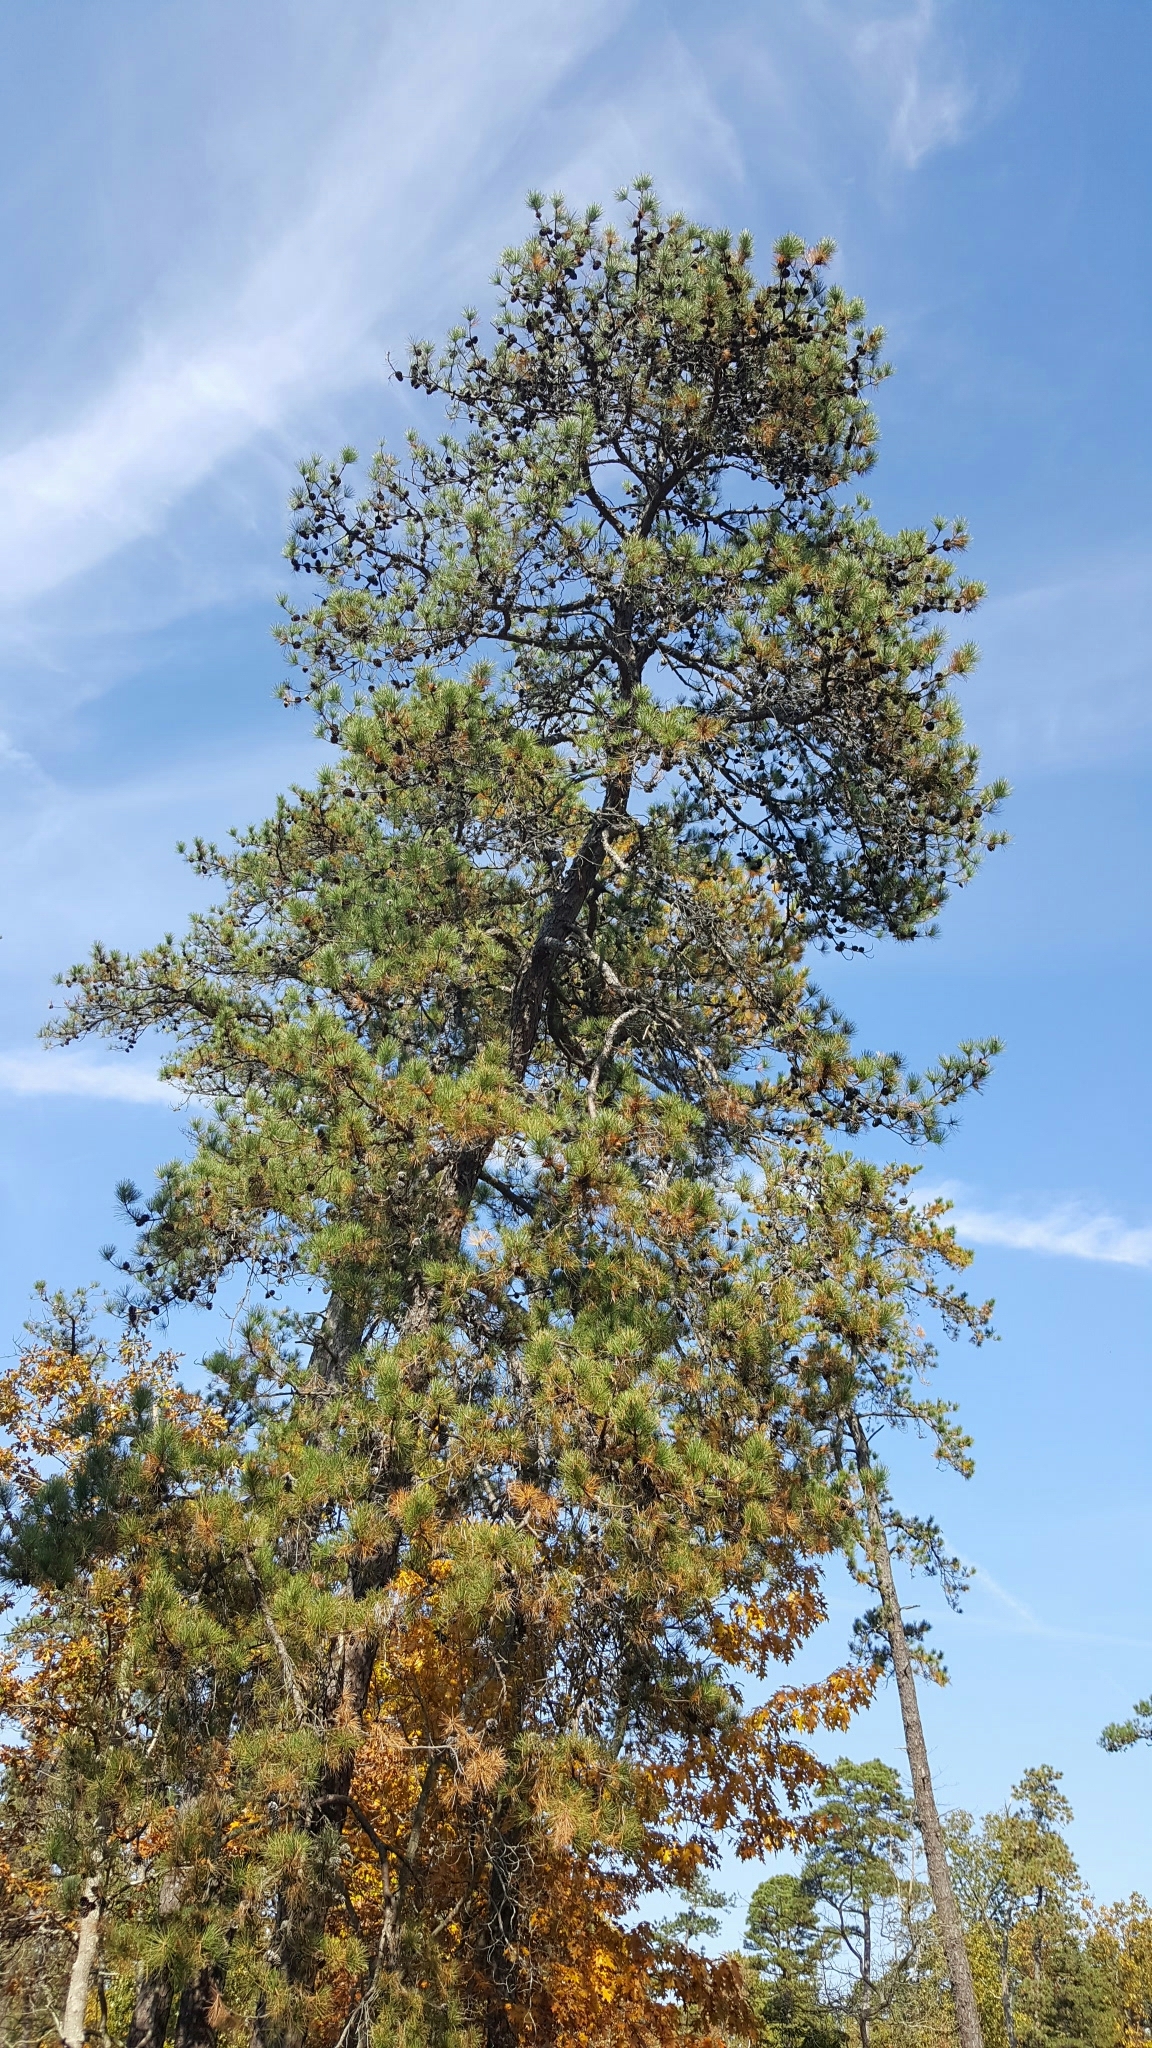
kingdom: Plantae
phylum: Tracheophyta
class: Pinopsida
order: Pinales
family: Pinaceae
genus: Pinus
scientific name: Pinus rigida
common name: Pitch pine
